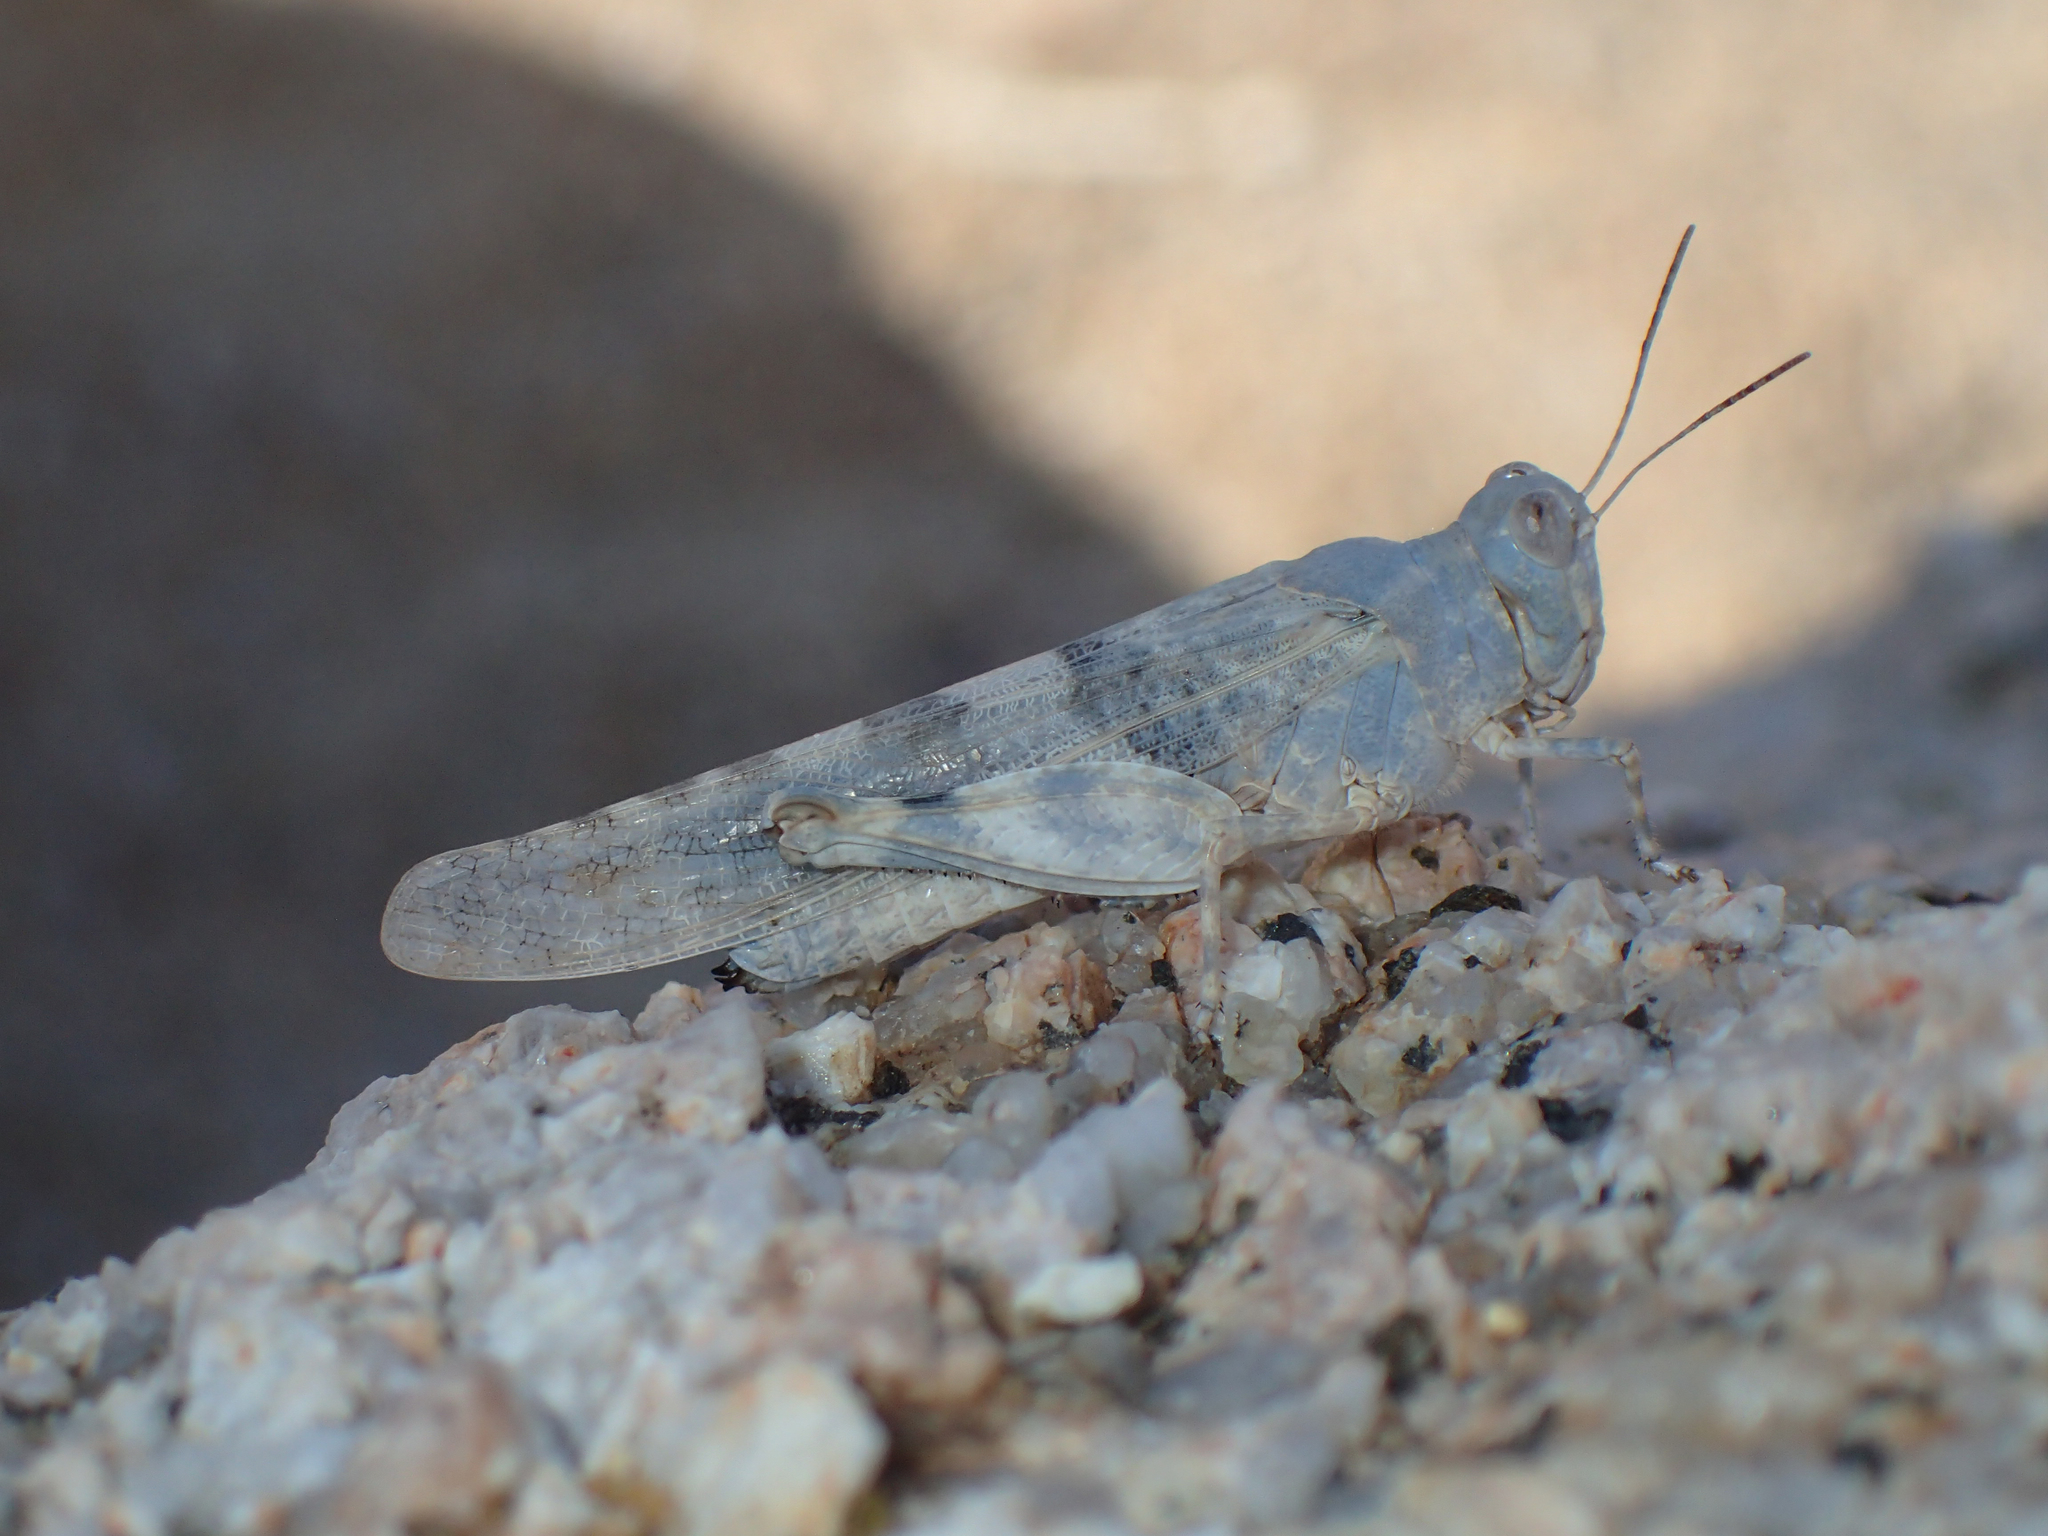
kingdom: Animalia
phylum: Arthropoda
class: Insecta
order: Orthoptera
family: Acrididae
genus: Sphingonotus
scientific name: Sphingonotus corsicus
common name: Corsican sand grasshopper
